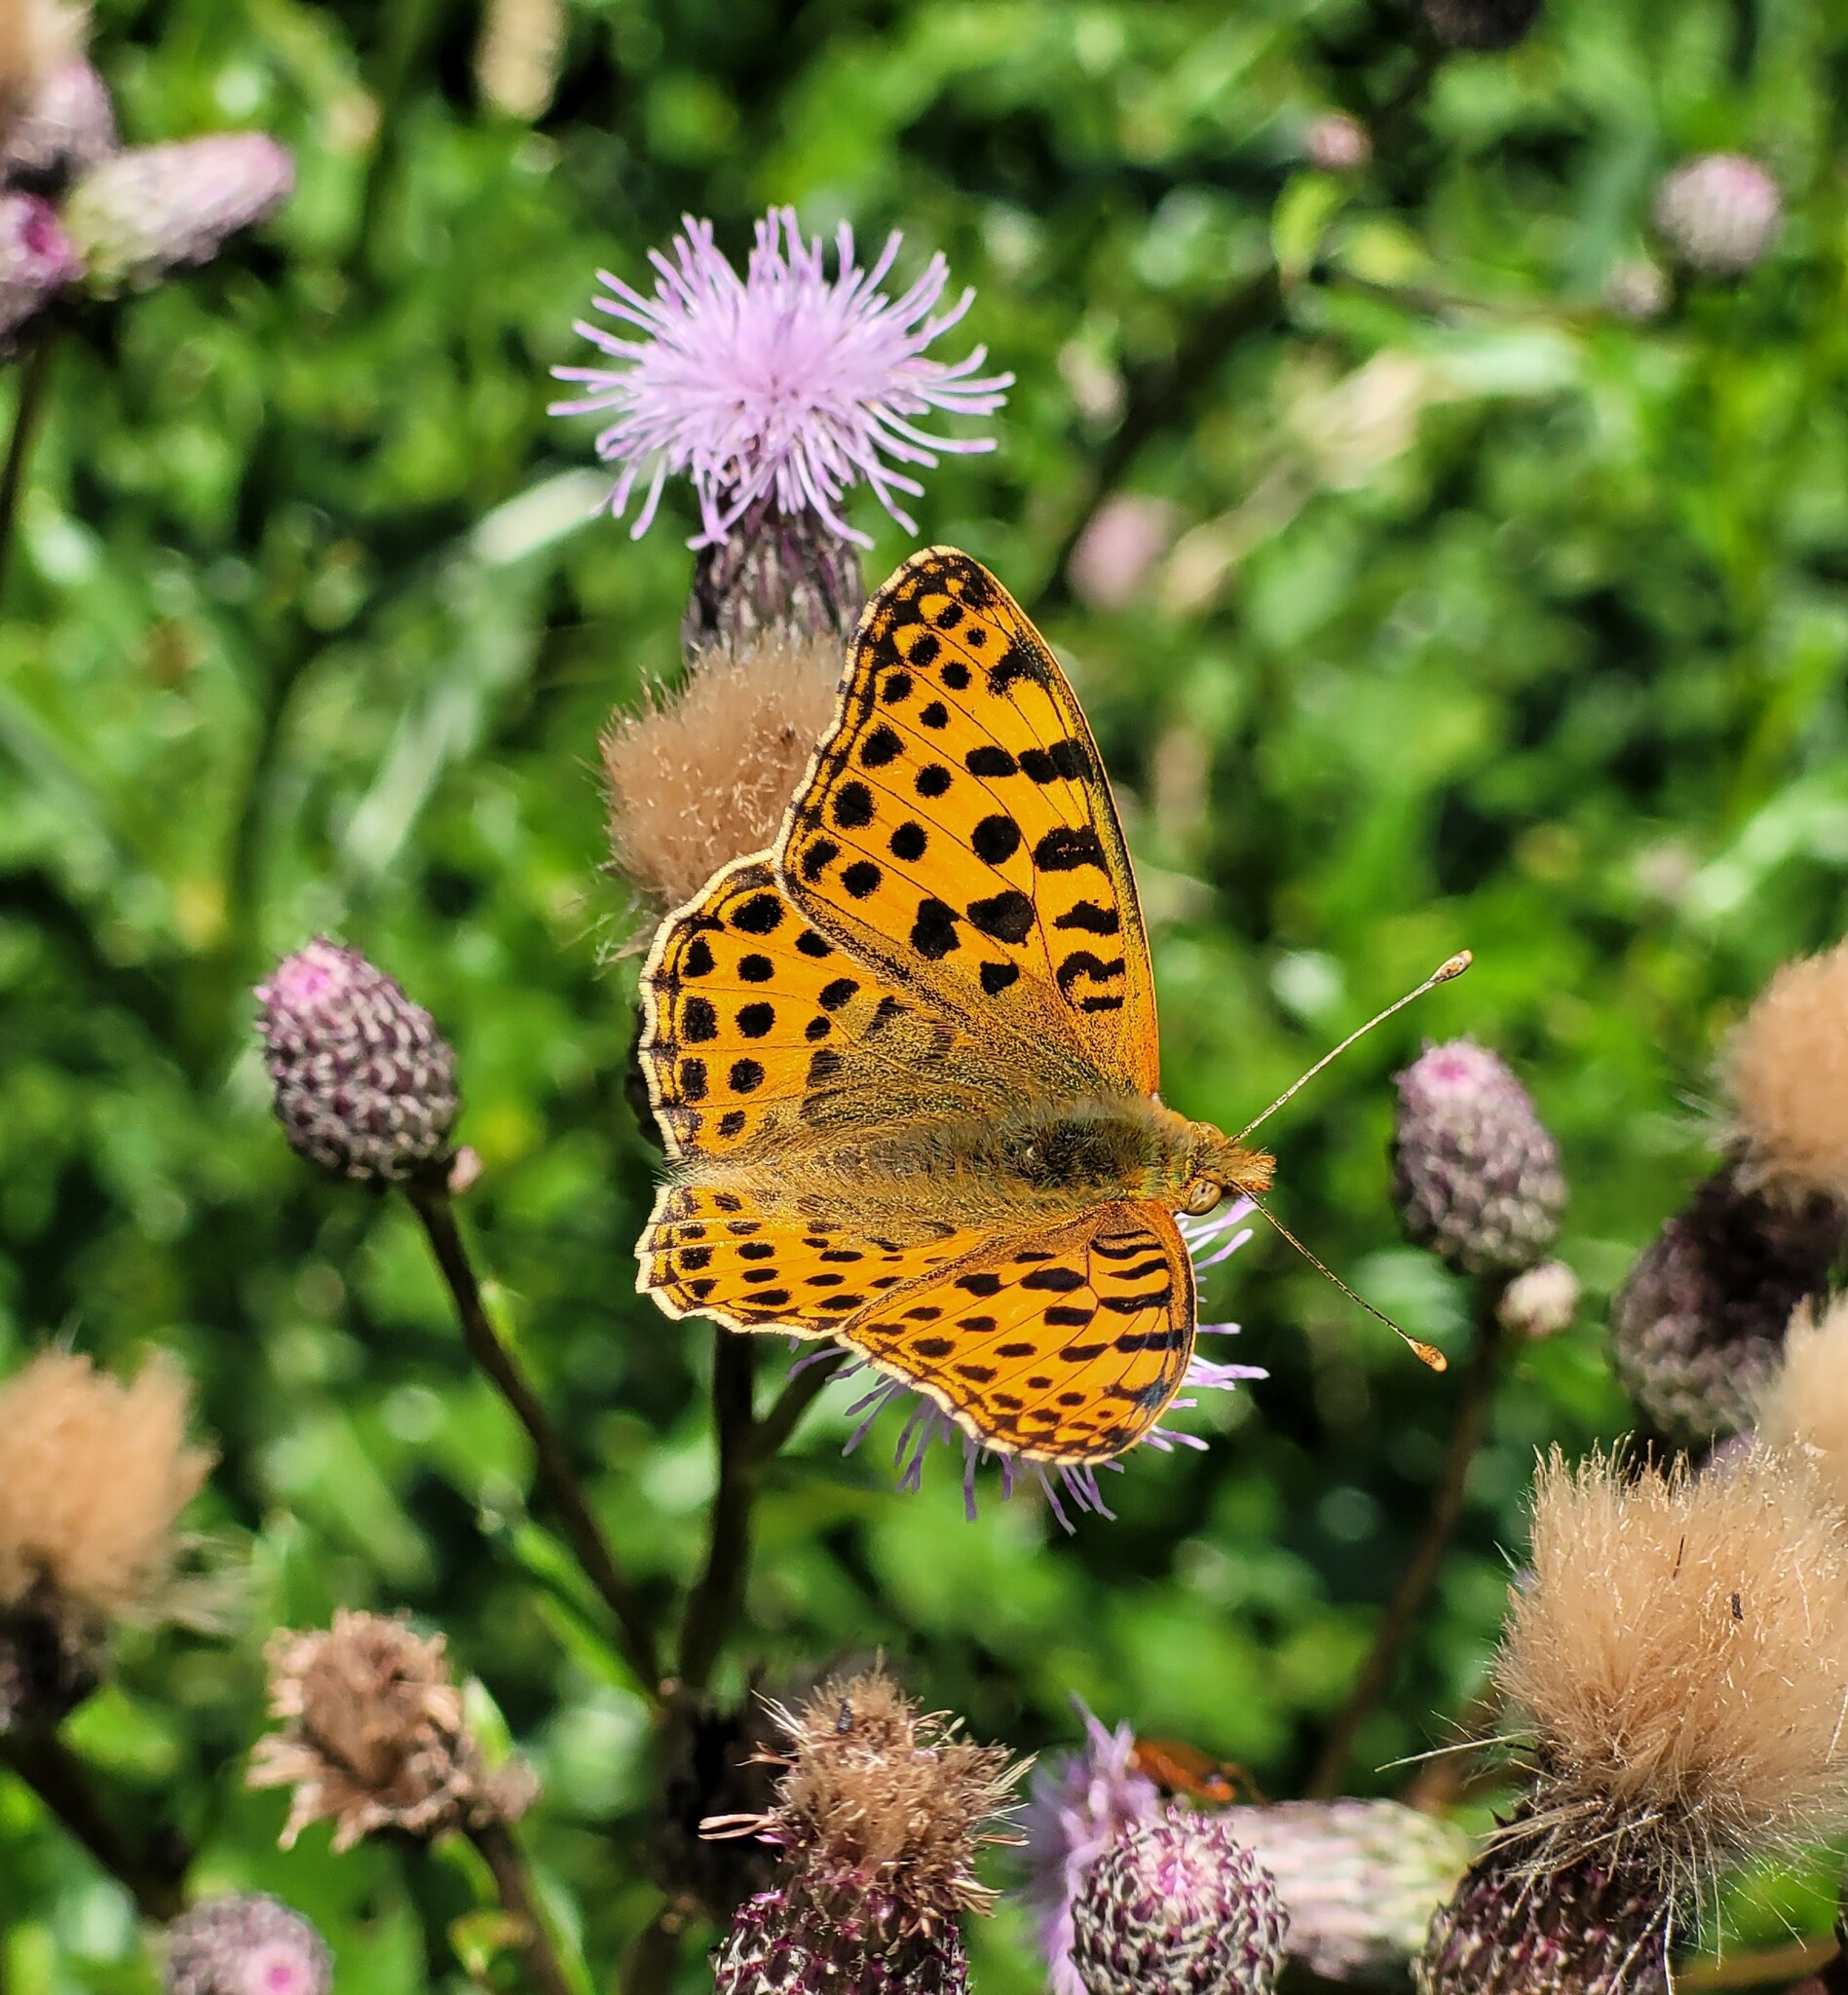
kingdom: Animalia
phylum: Arthropoda
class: Insecta
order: Lepidoptera
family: Nymphalidae
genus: Issoria
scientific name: Issoria lathonia
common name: Queen of spain fritillary
